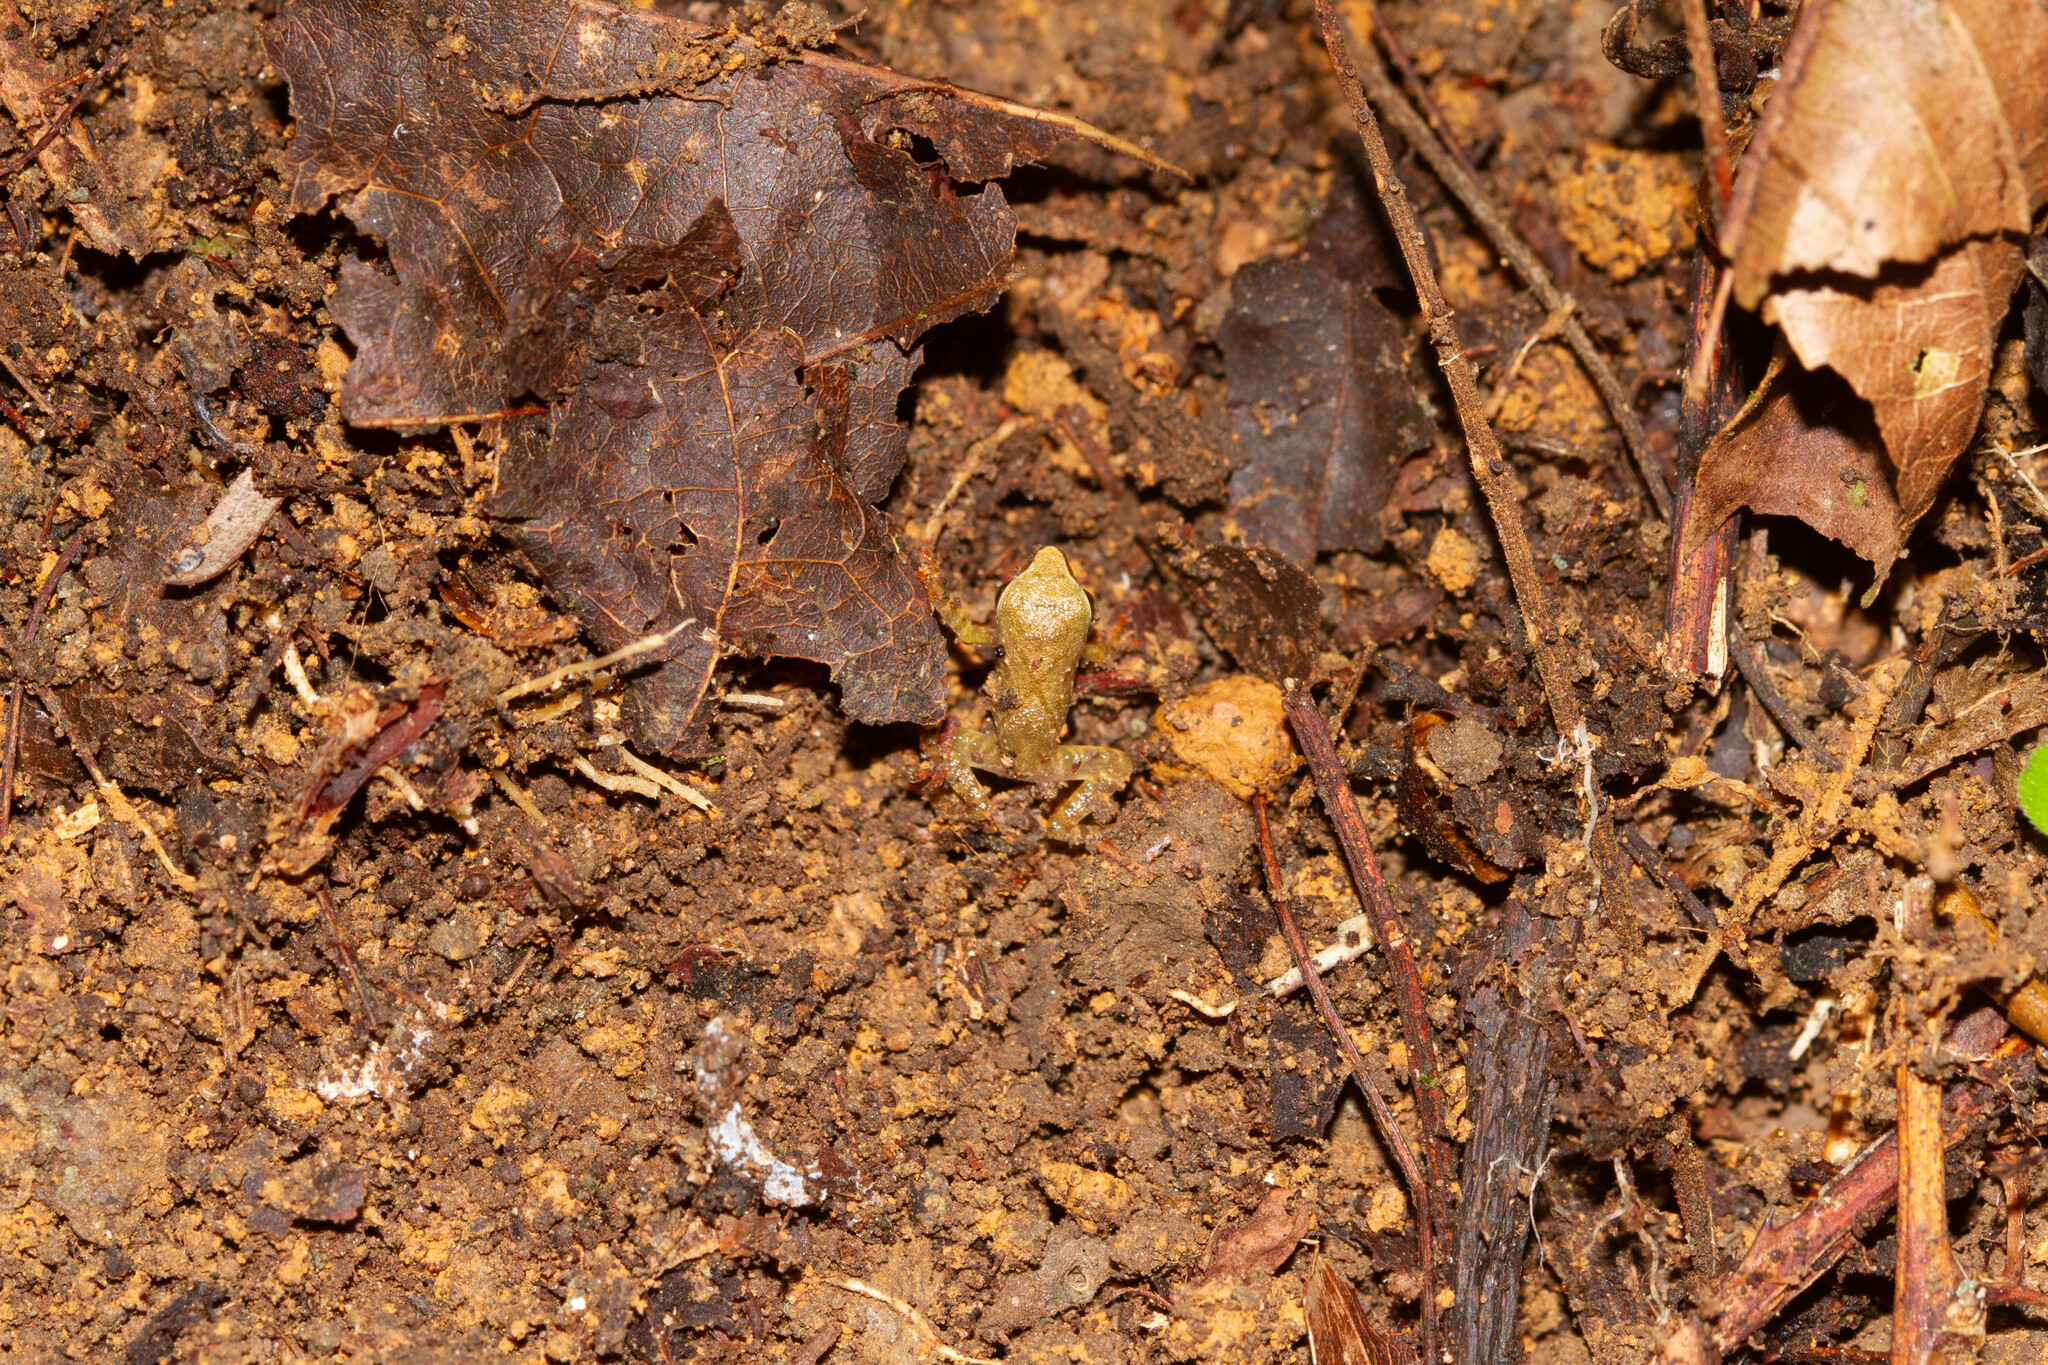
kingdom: Animalia
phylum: Chordata
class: Amphibia
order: Anura
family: Craugastoridae
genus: Pristimantis
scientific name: Pristimantis chiastonotus
